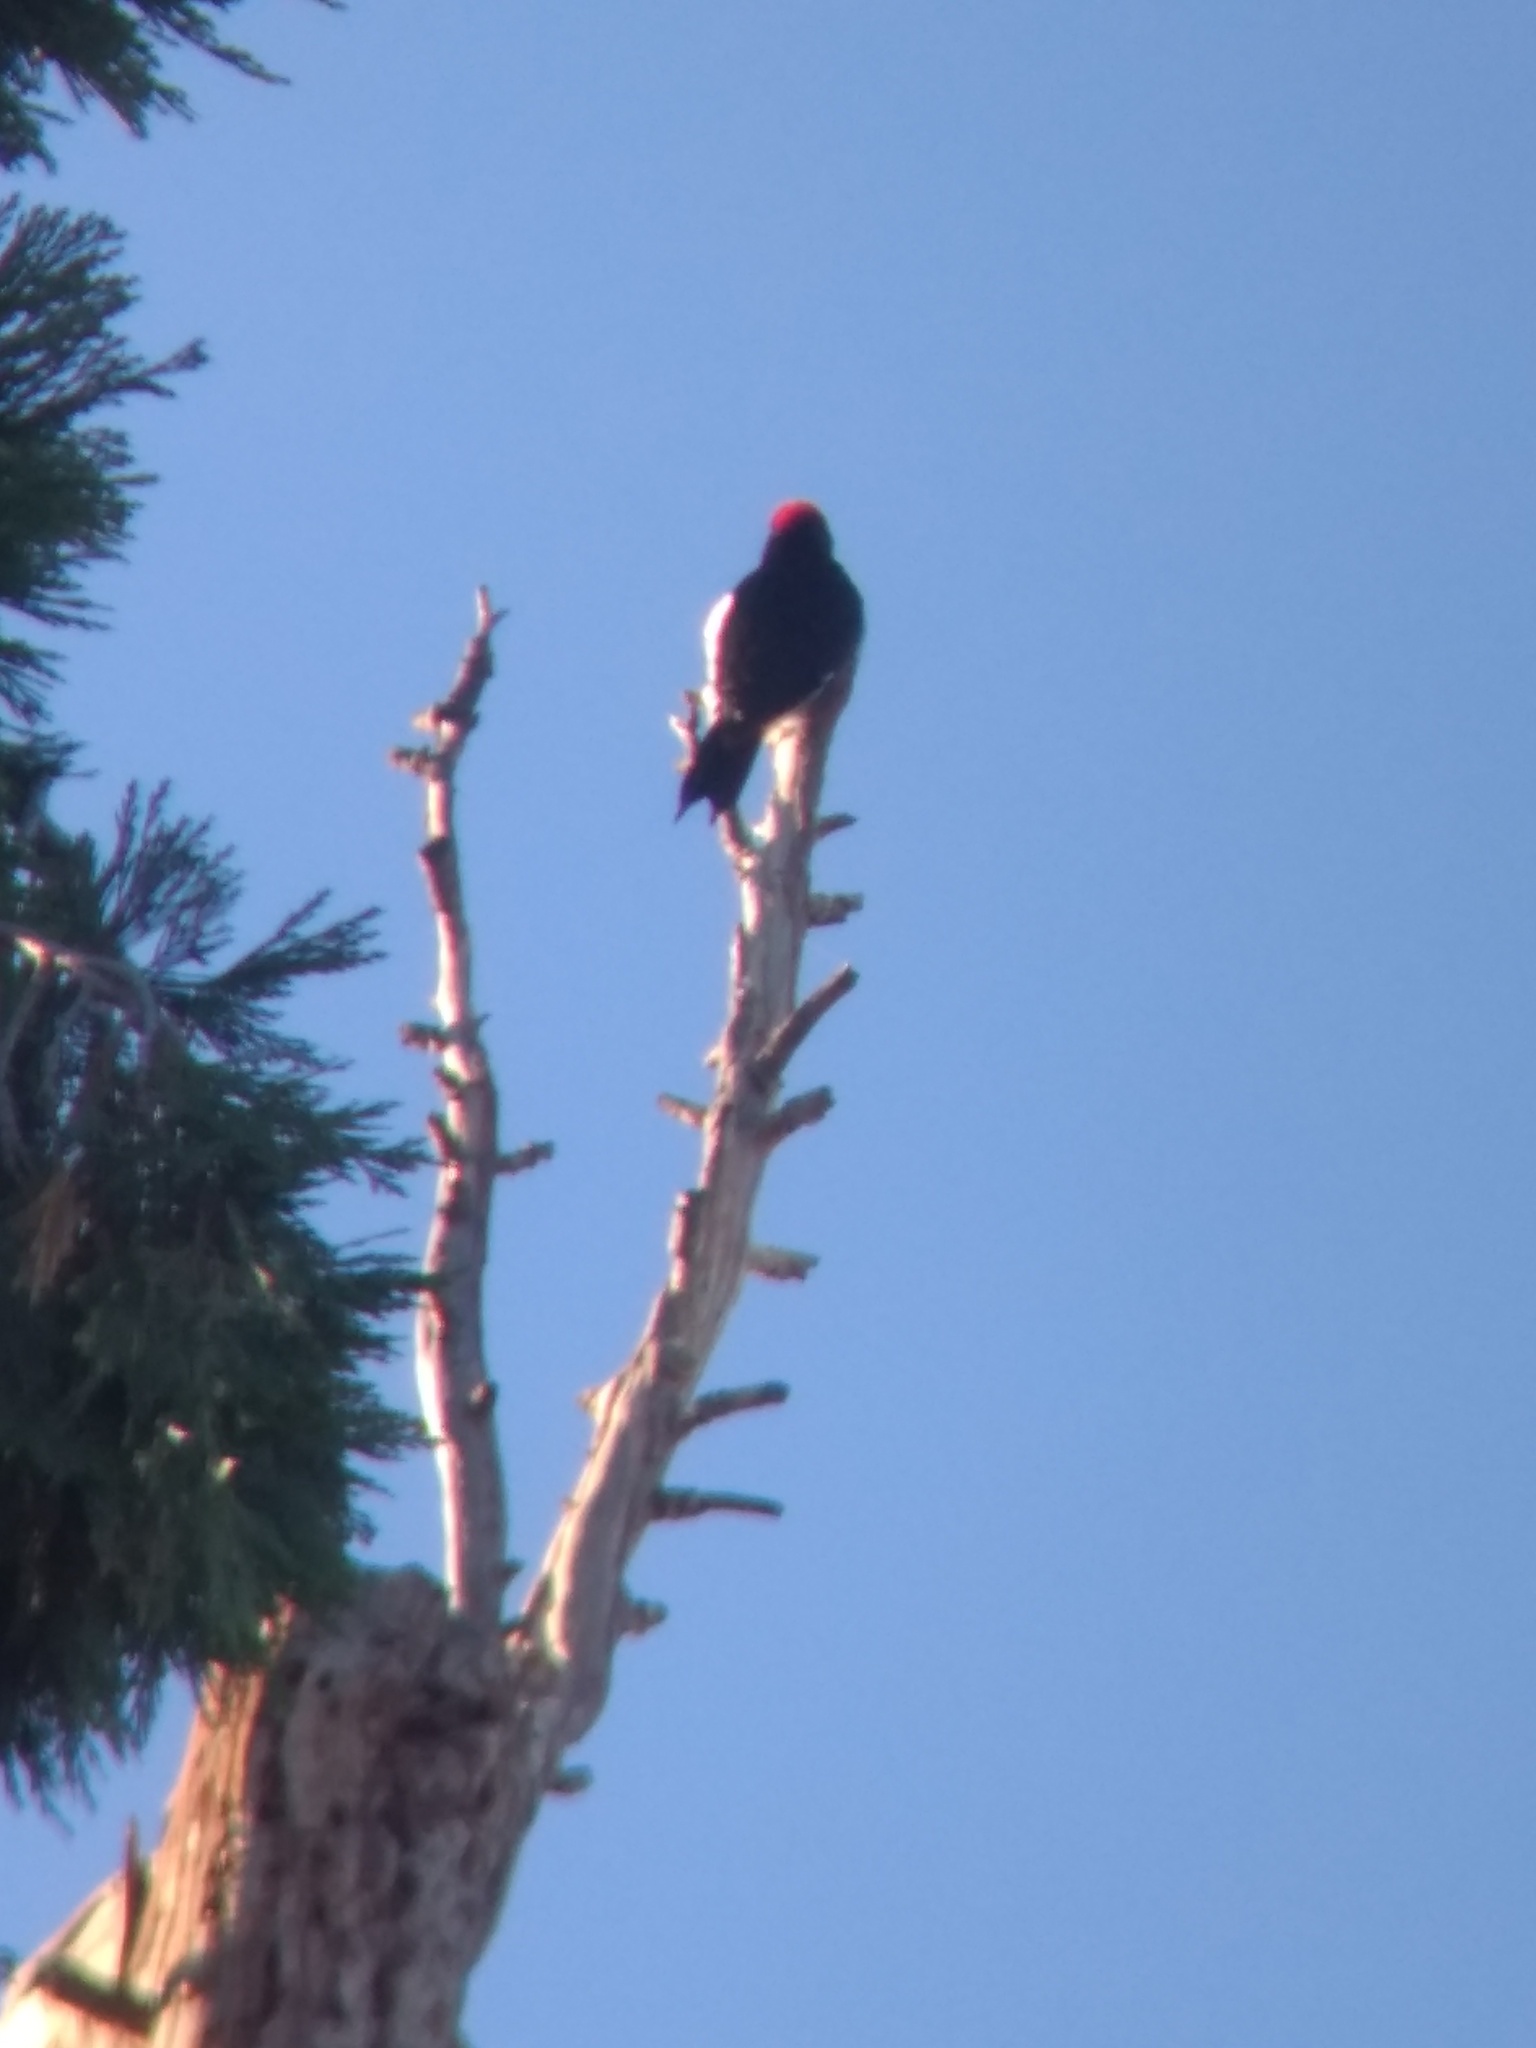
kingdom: Animalia
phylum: Chordata
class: Aves
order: Piciformes
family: Picidae
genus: Melanerpes
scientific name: Melanerpes formicivorus
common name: Acorn woodpecker
